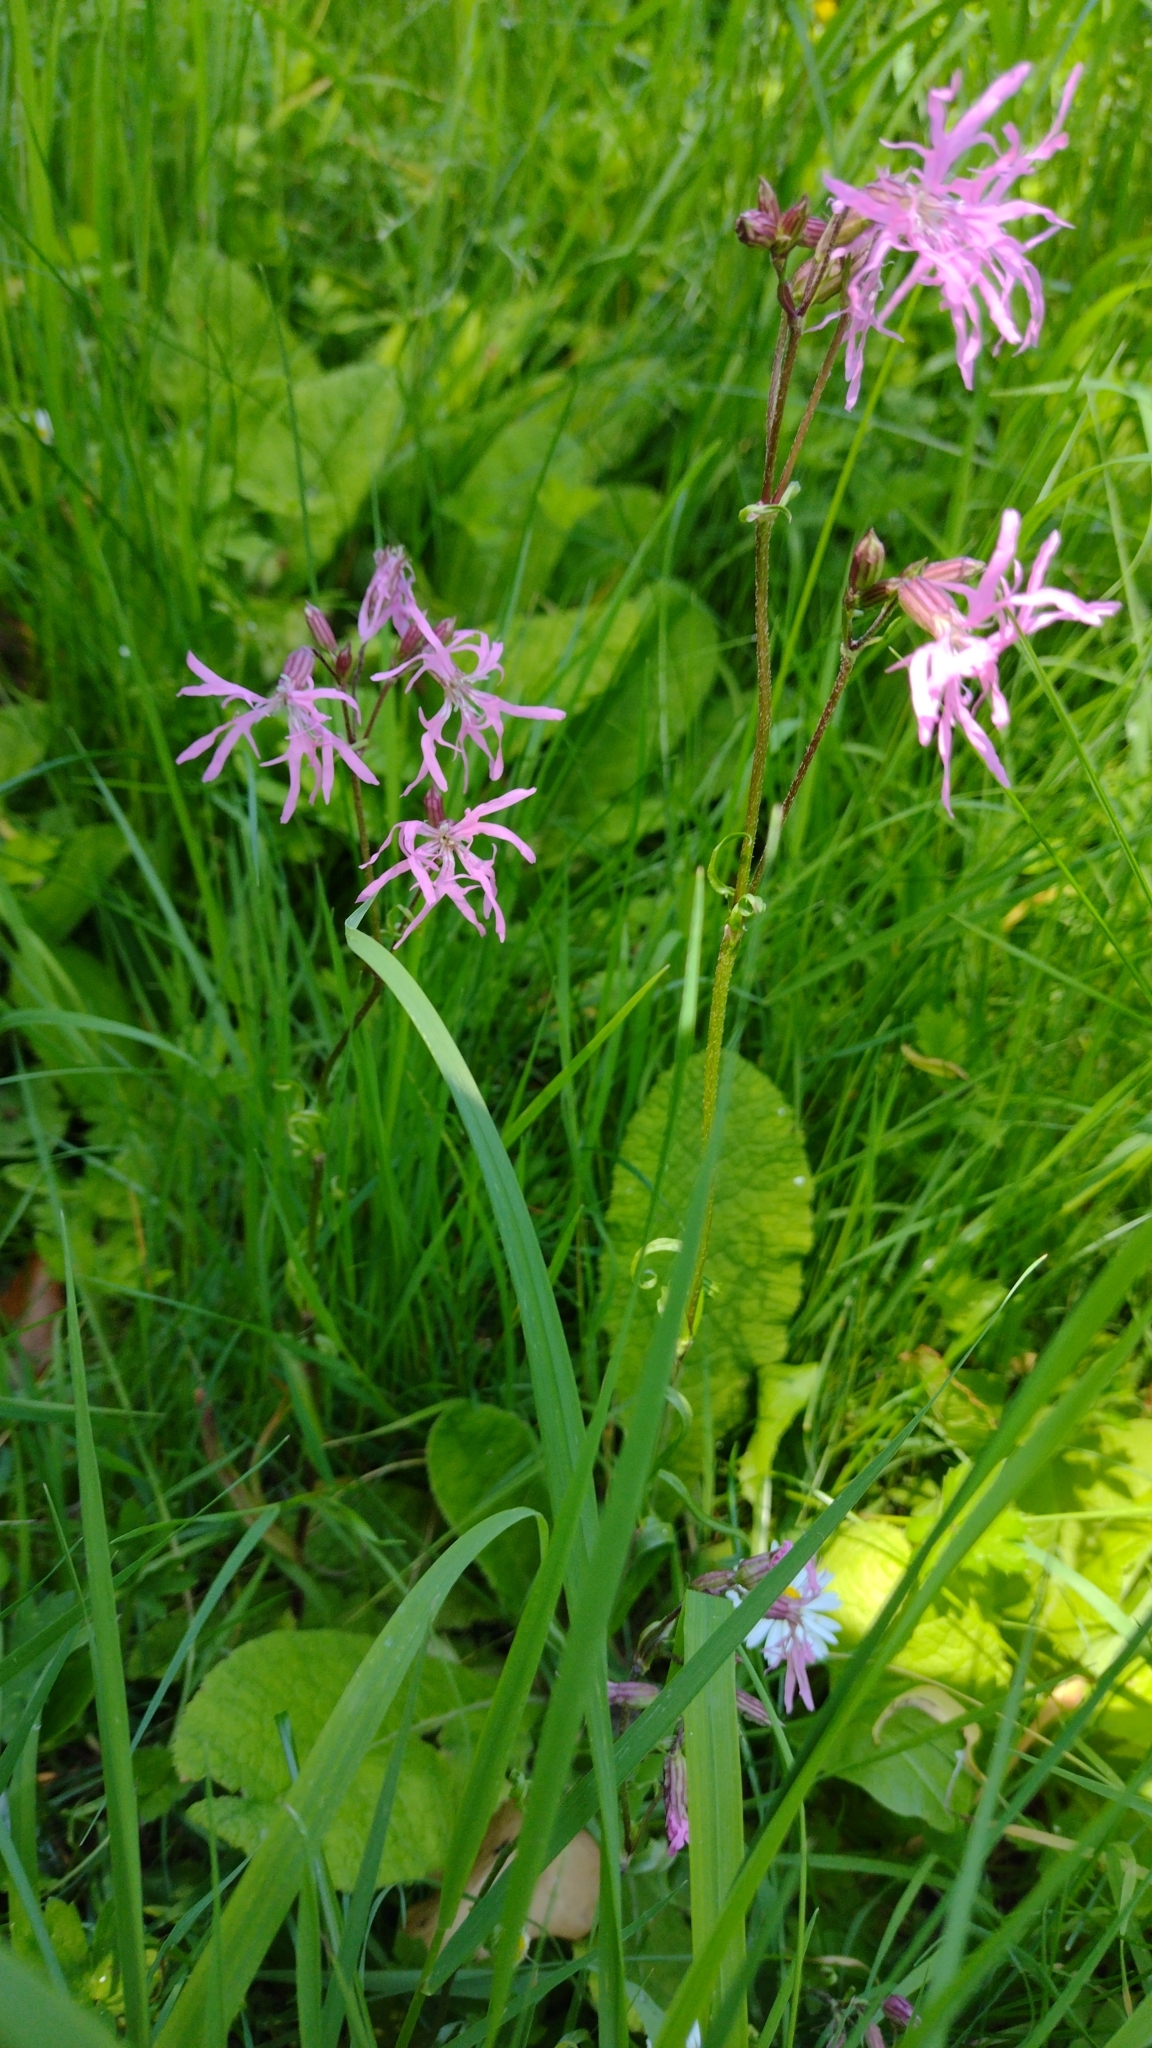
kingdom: Plantae
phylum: Tracheophyta
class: Magnoliopsida
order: Caryophyllales
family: Caryophyllaceae
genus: Silene
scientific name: Silene flos-cuculi
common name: Ragged-robin
